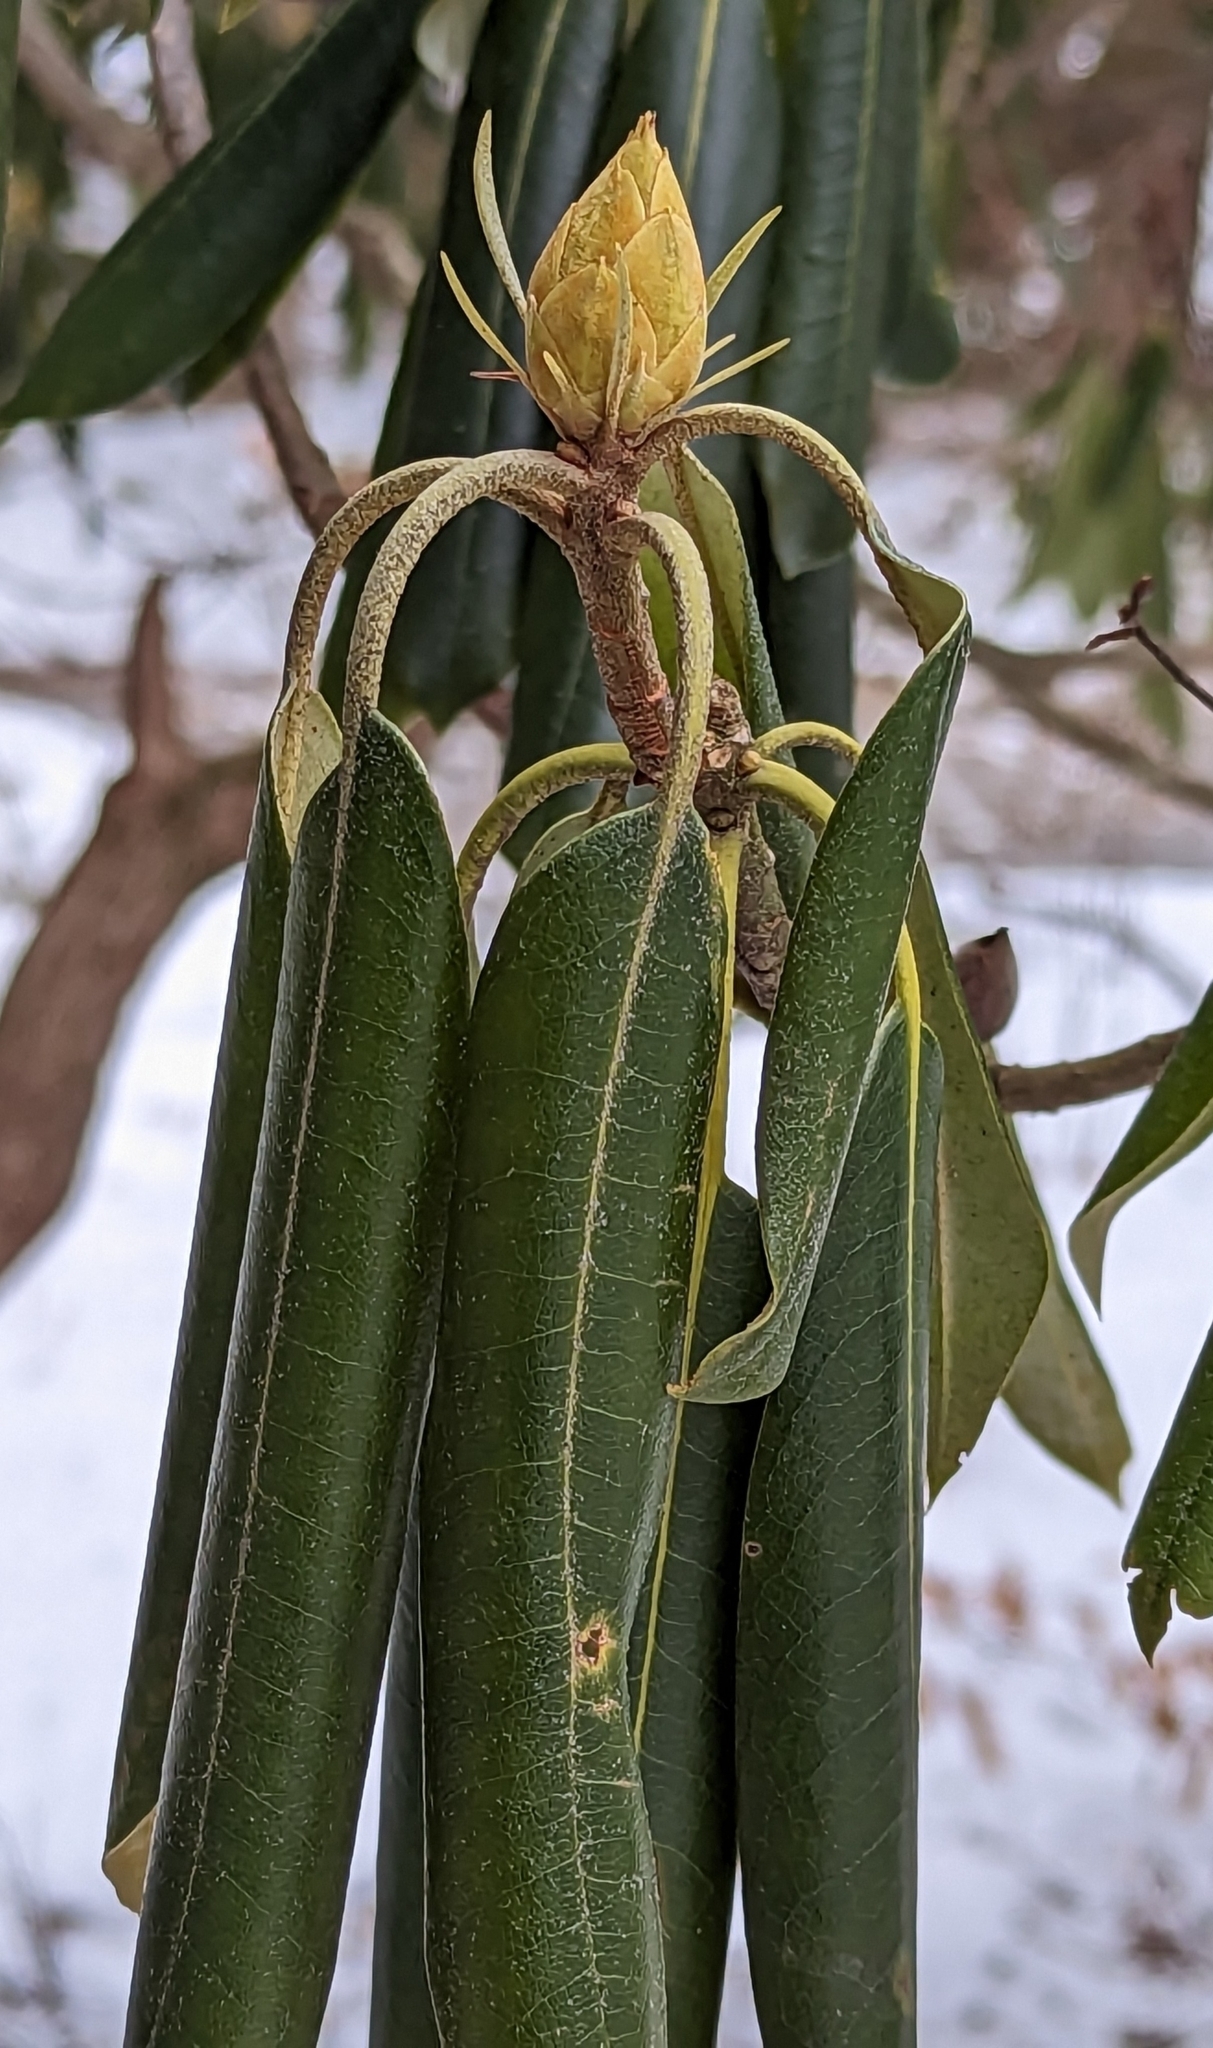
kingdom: Plantae
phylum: Tracheophyta
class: Magnoliopsida
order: Ericales
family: Ericaceae
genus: Rhododendron
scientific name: Rhododendron maximum
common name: Great rhododendron
